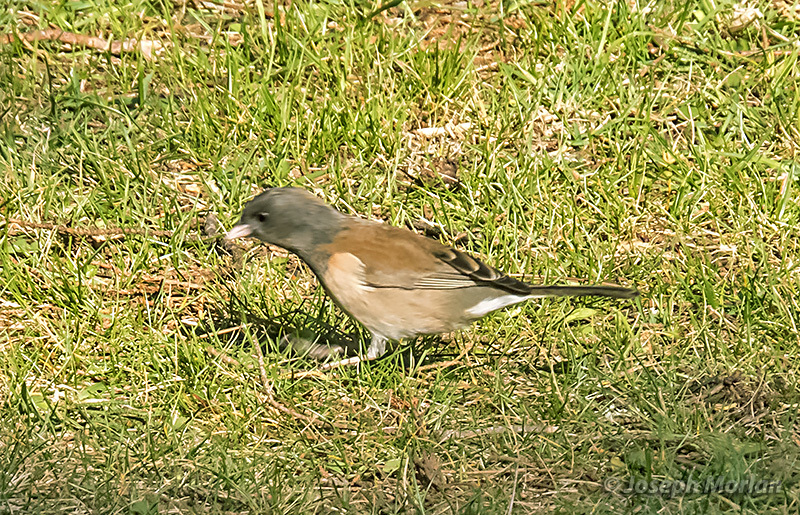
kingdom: Animalia
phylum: Chordata
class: Aves
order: Passeriformes
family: Passerellidae
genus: Junco
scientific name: Junco hyemalis
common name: Dark-eyed junco
